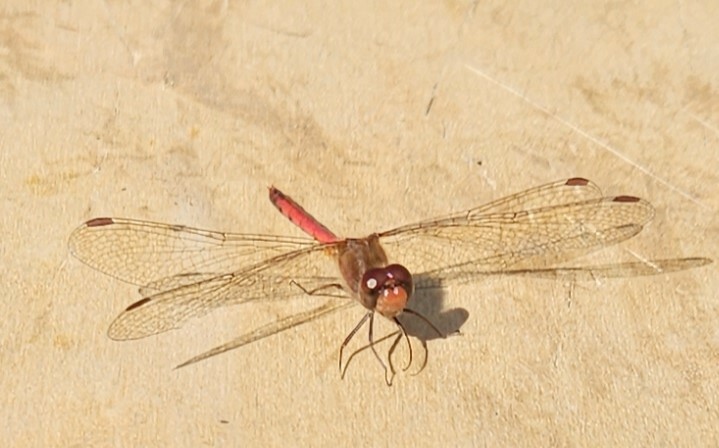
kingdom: Animalia
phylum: Arthropoda
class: Insecta
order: Odonata
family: Libellulidae
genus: Sympetrum
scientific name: Sympetrum vicinum
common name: Autumn meadowhawk
